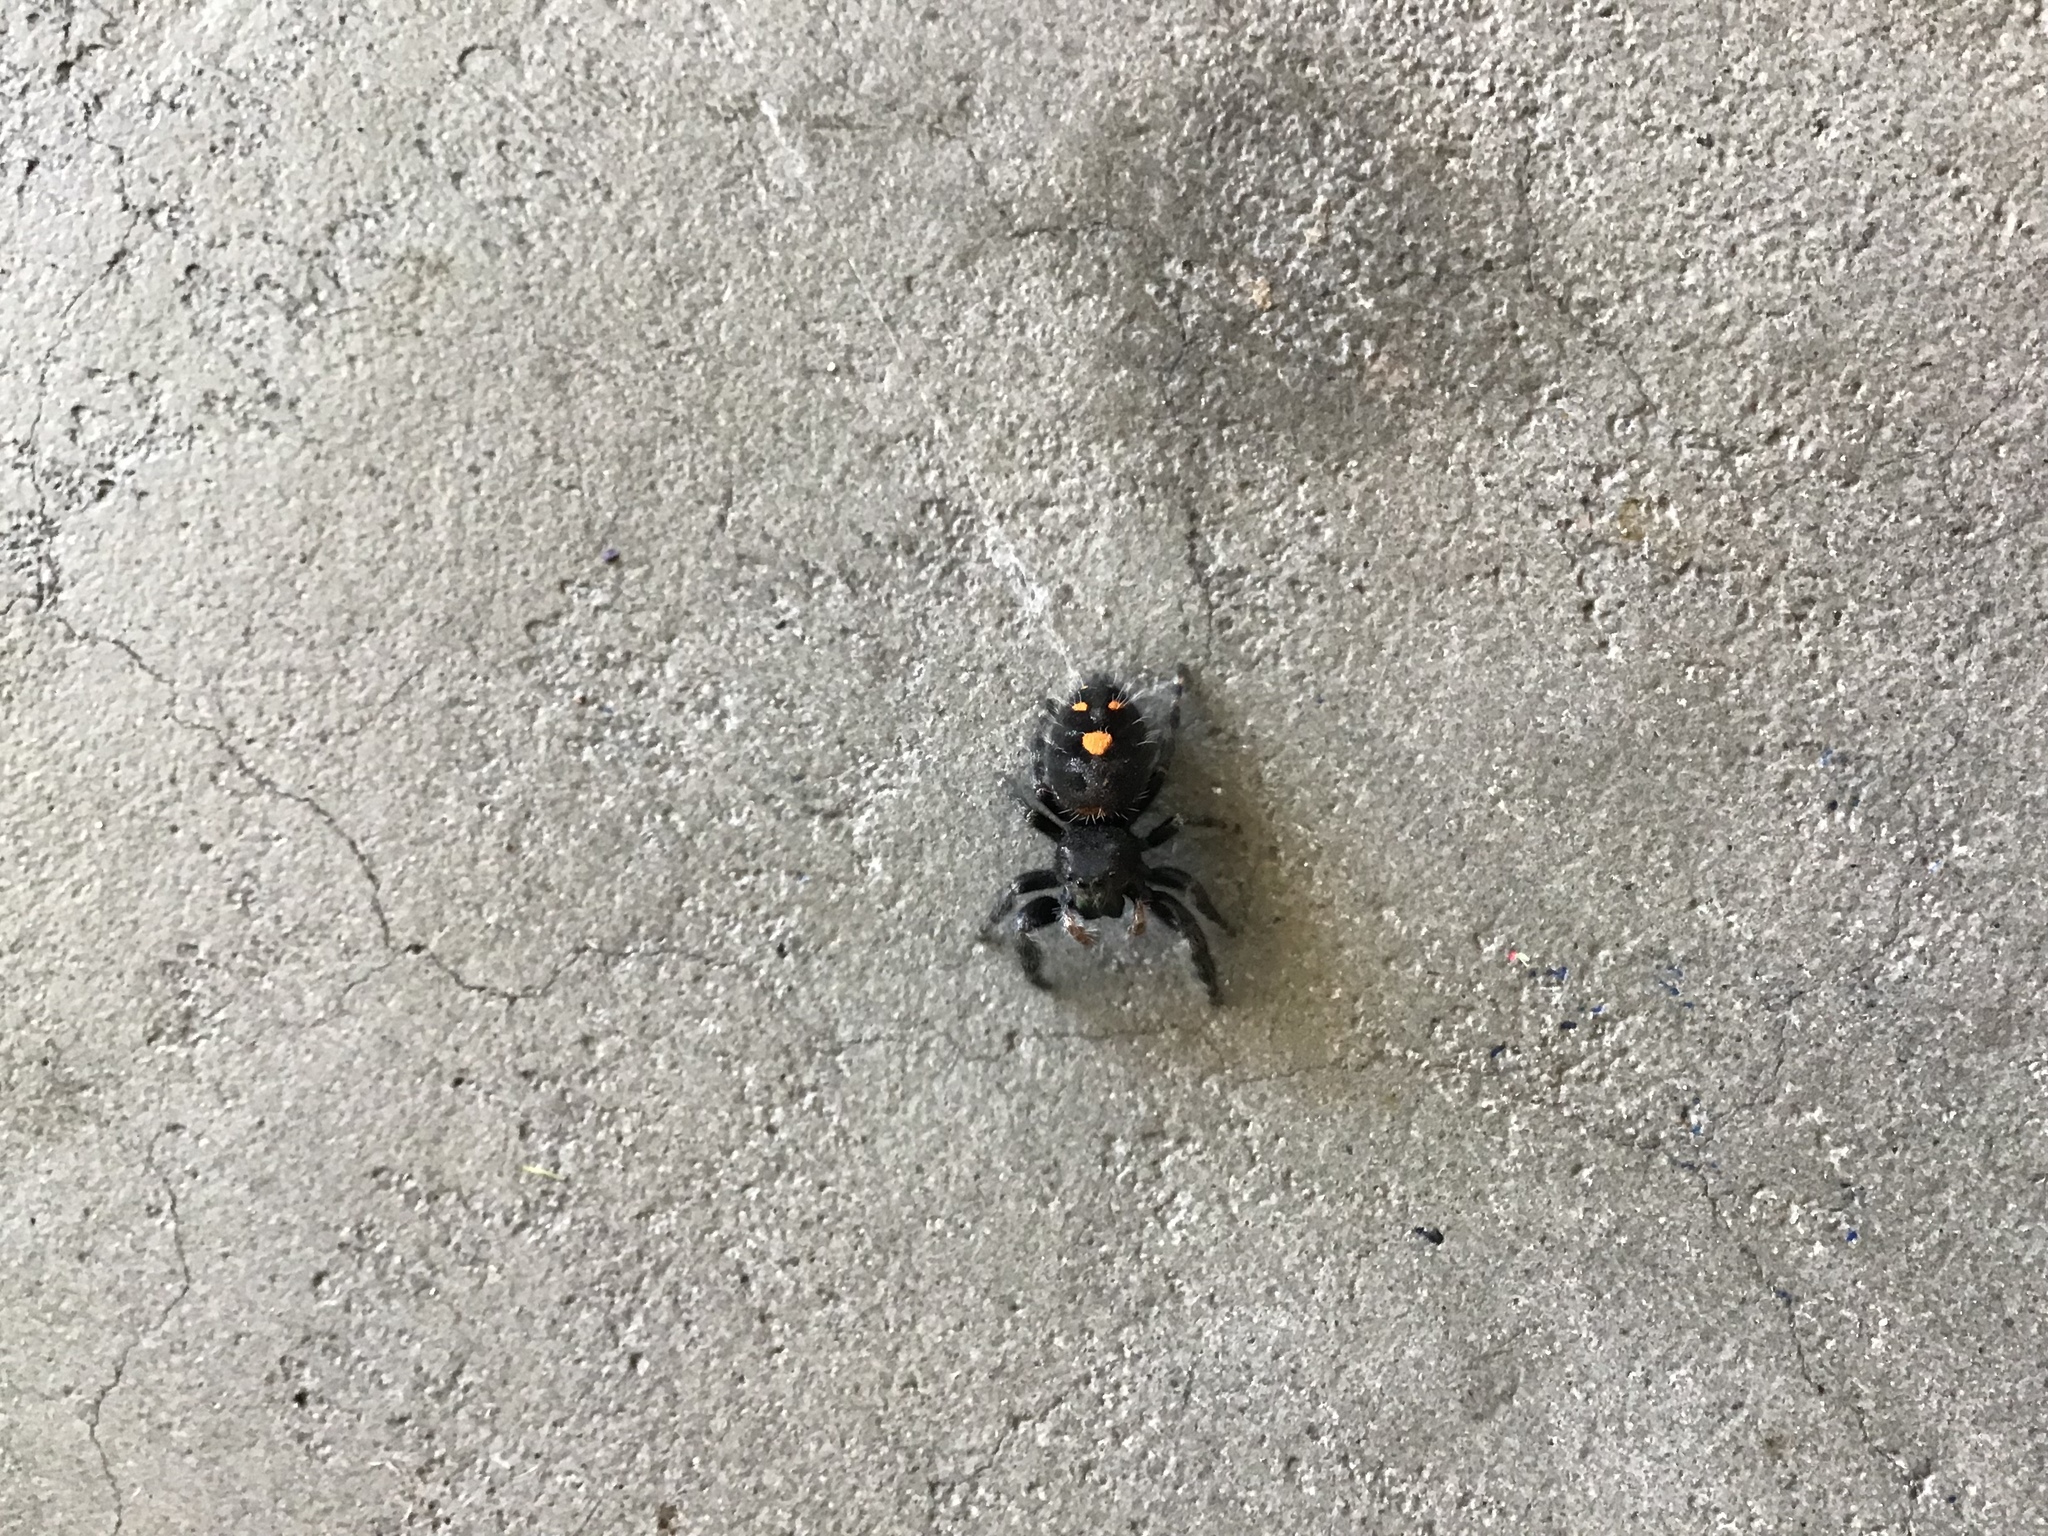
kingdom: Animalia
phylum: Arthropoda
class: Arachnida
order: Araneae
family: Salticidae
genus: Phidippus
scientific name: Phidippus audax
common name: Bold jumper
